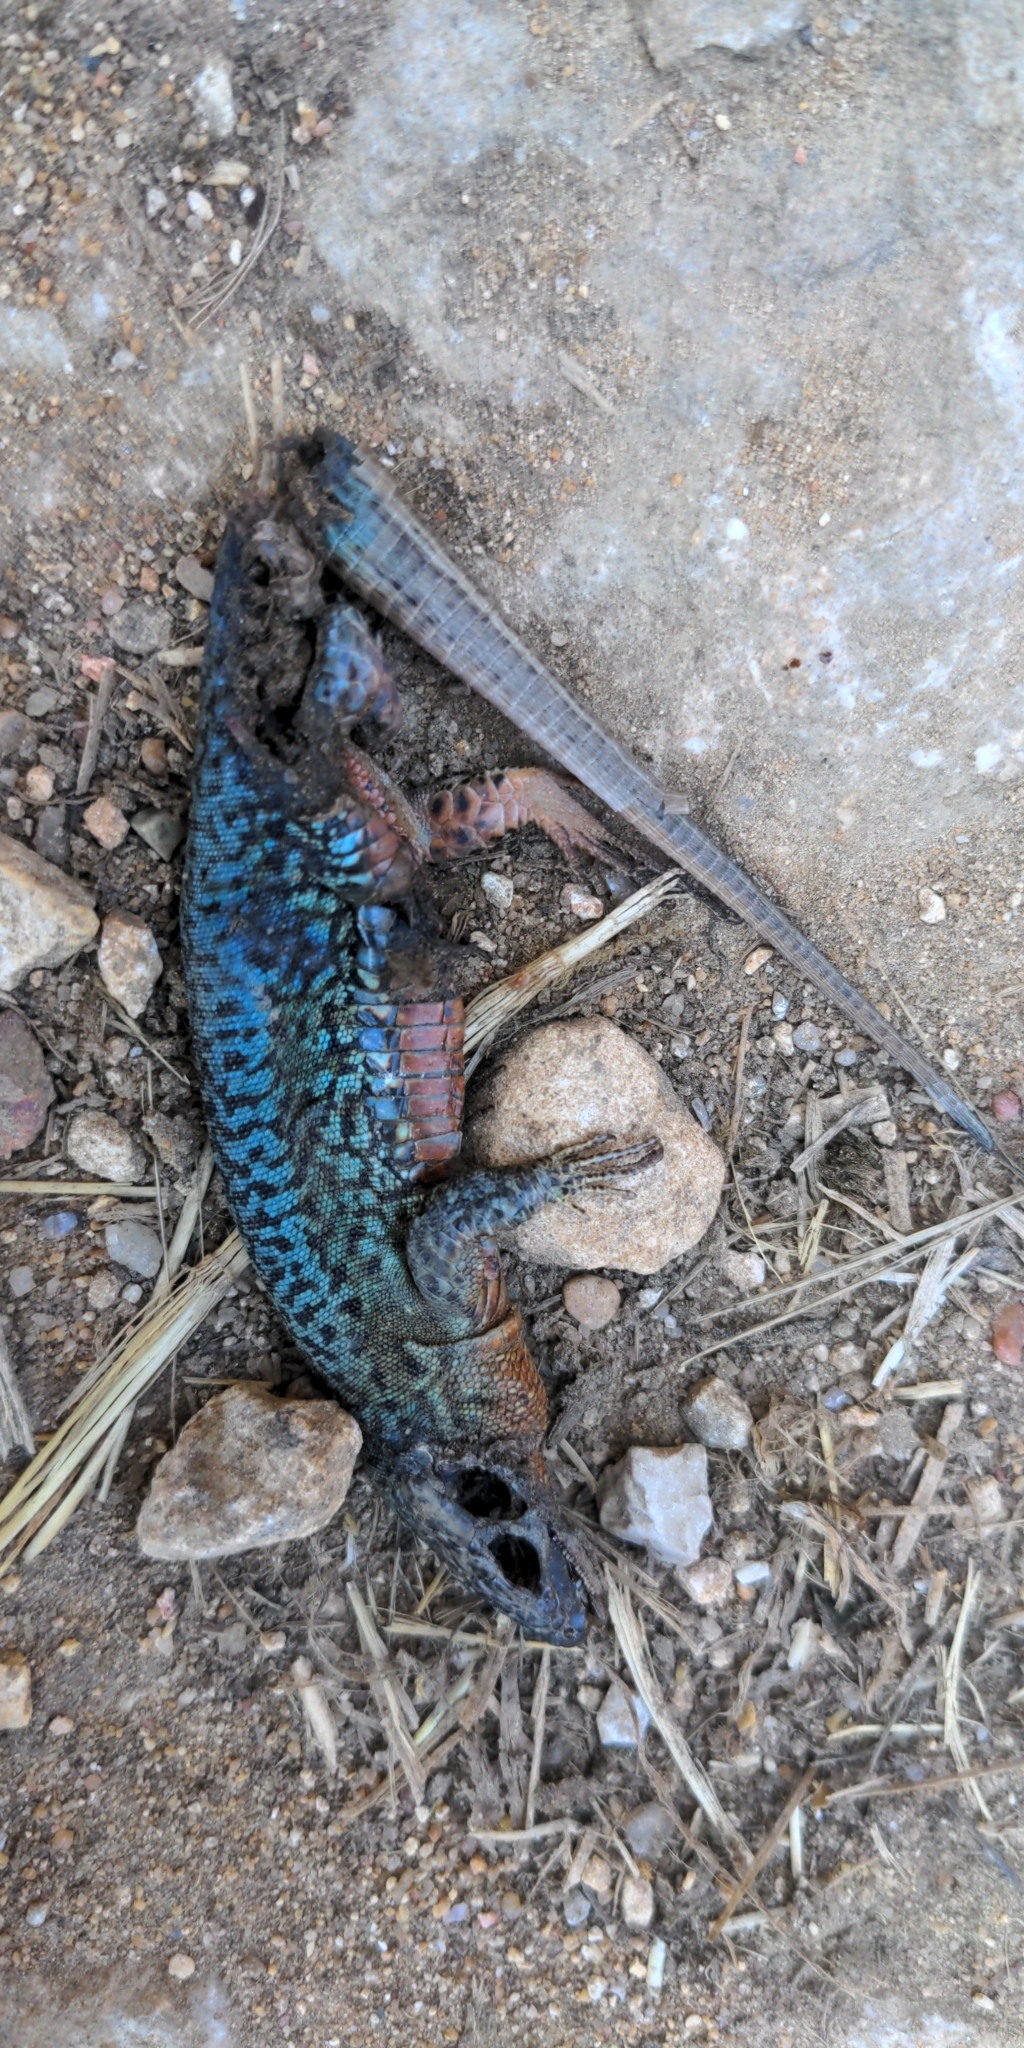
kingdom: Animalia
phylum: Chordata
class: Squamata
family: Lacertidae
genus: Podarcis
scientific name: Podarcis muralis
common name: Common wall lizard
